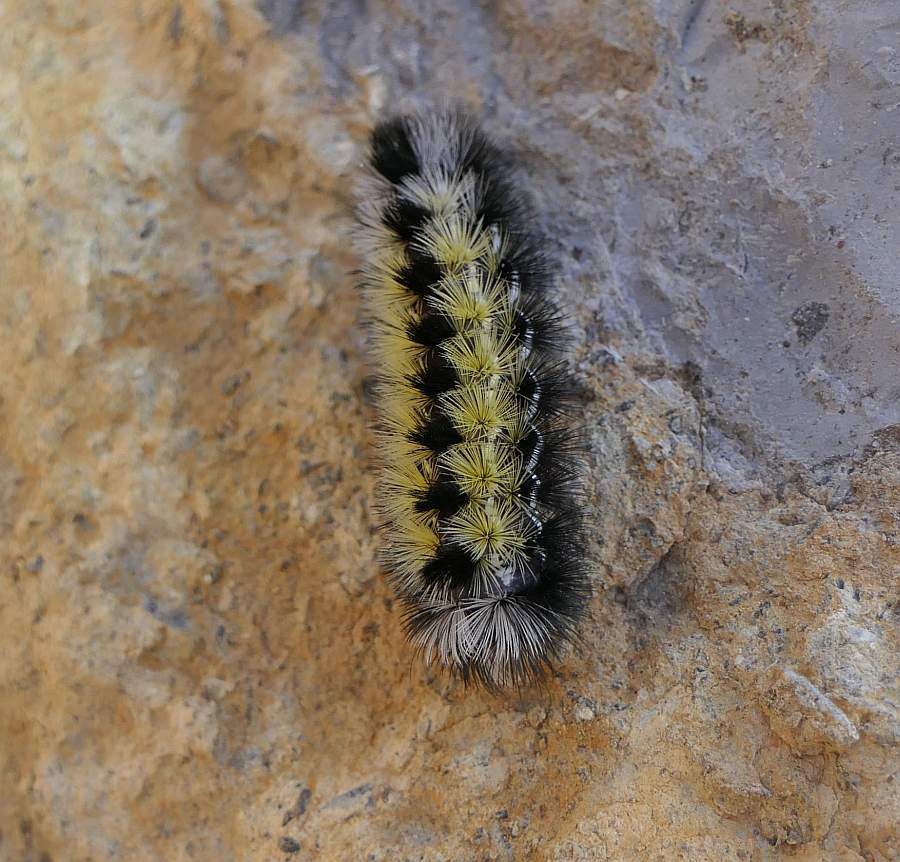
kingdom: Animalia
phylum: Arthropoda
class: Insecta
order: Lepidoptera
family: Erebidae
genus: Ctenucha
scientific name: Ctenucha virginica
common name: Virginia ctenucha moth
